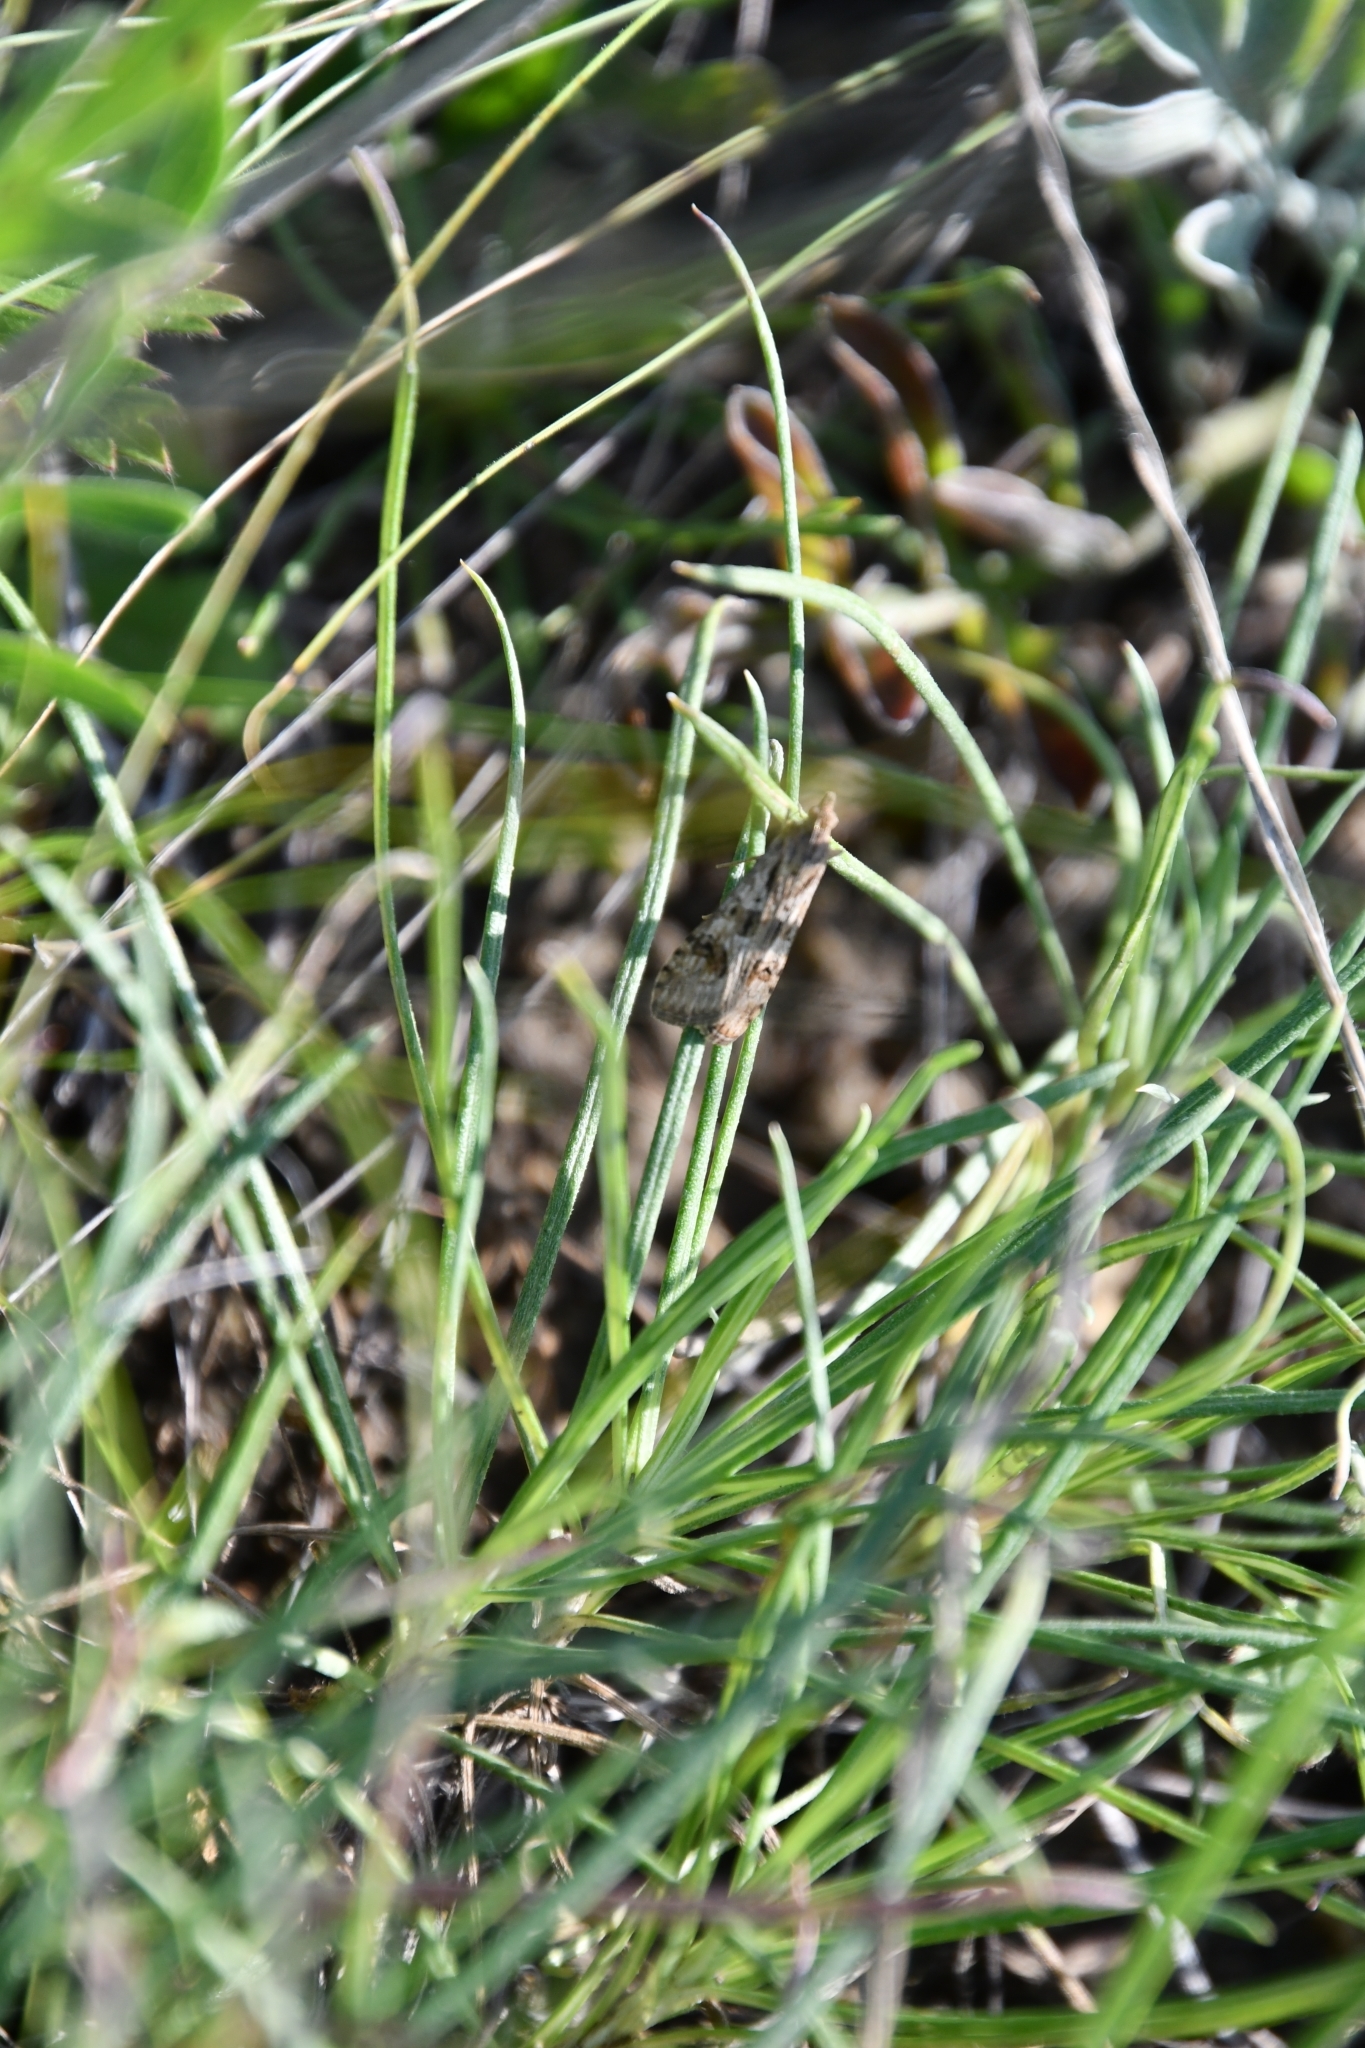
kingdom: Animalia
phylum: Arthropoda
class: Insecta
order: Lepidoptera
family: Crambidae
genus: Nomophila
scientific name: Nomophila noctuella
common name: Rush veneer
